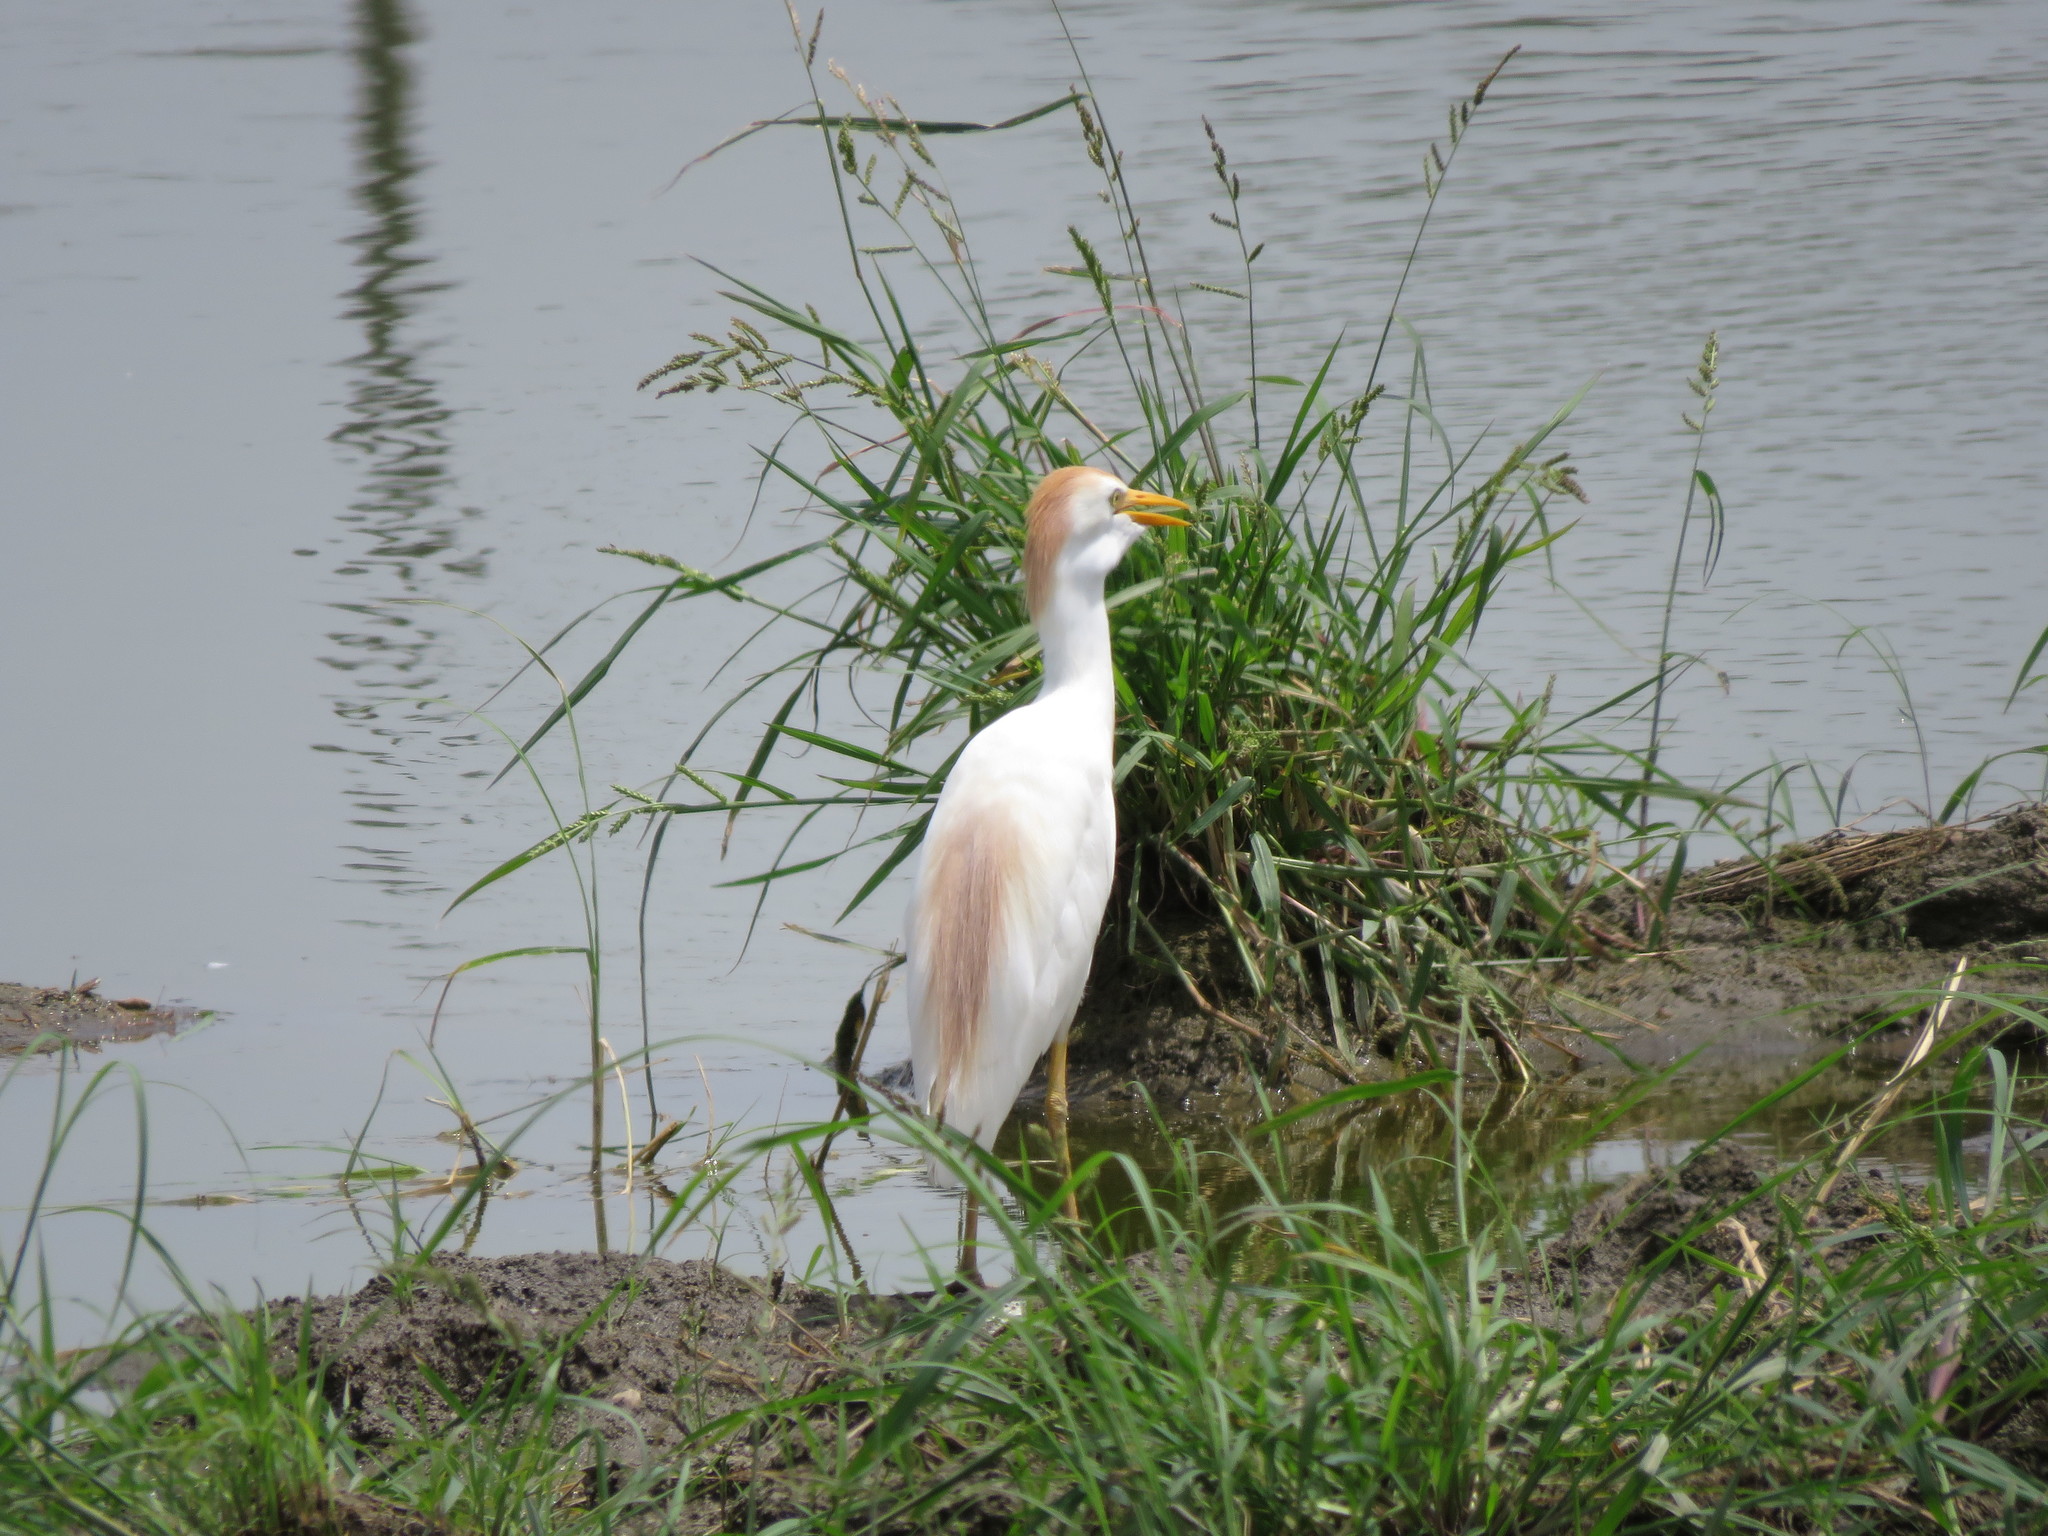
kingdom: Animalia
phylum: Chordata
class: Aves
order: Pelecaniformes
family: Ardeidae
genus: Bubulcus
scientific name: Bubulcus ibis
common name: Cattle egret
